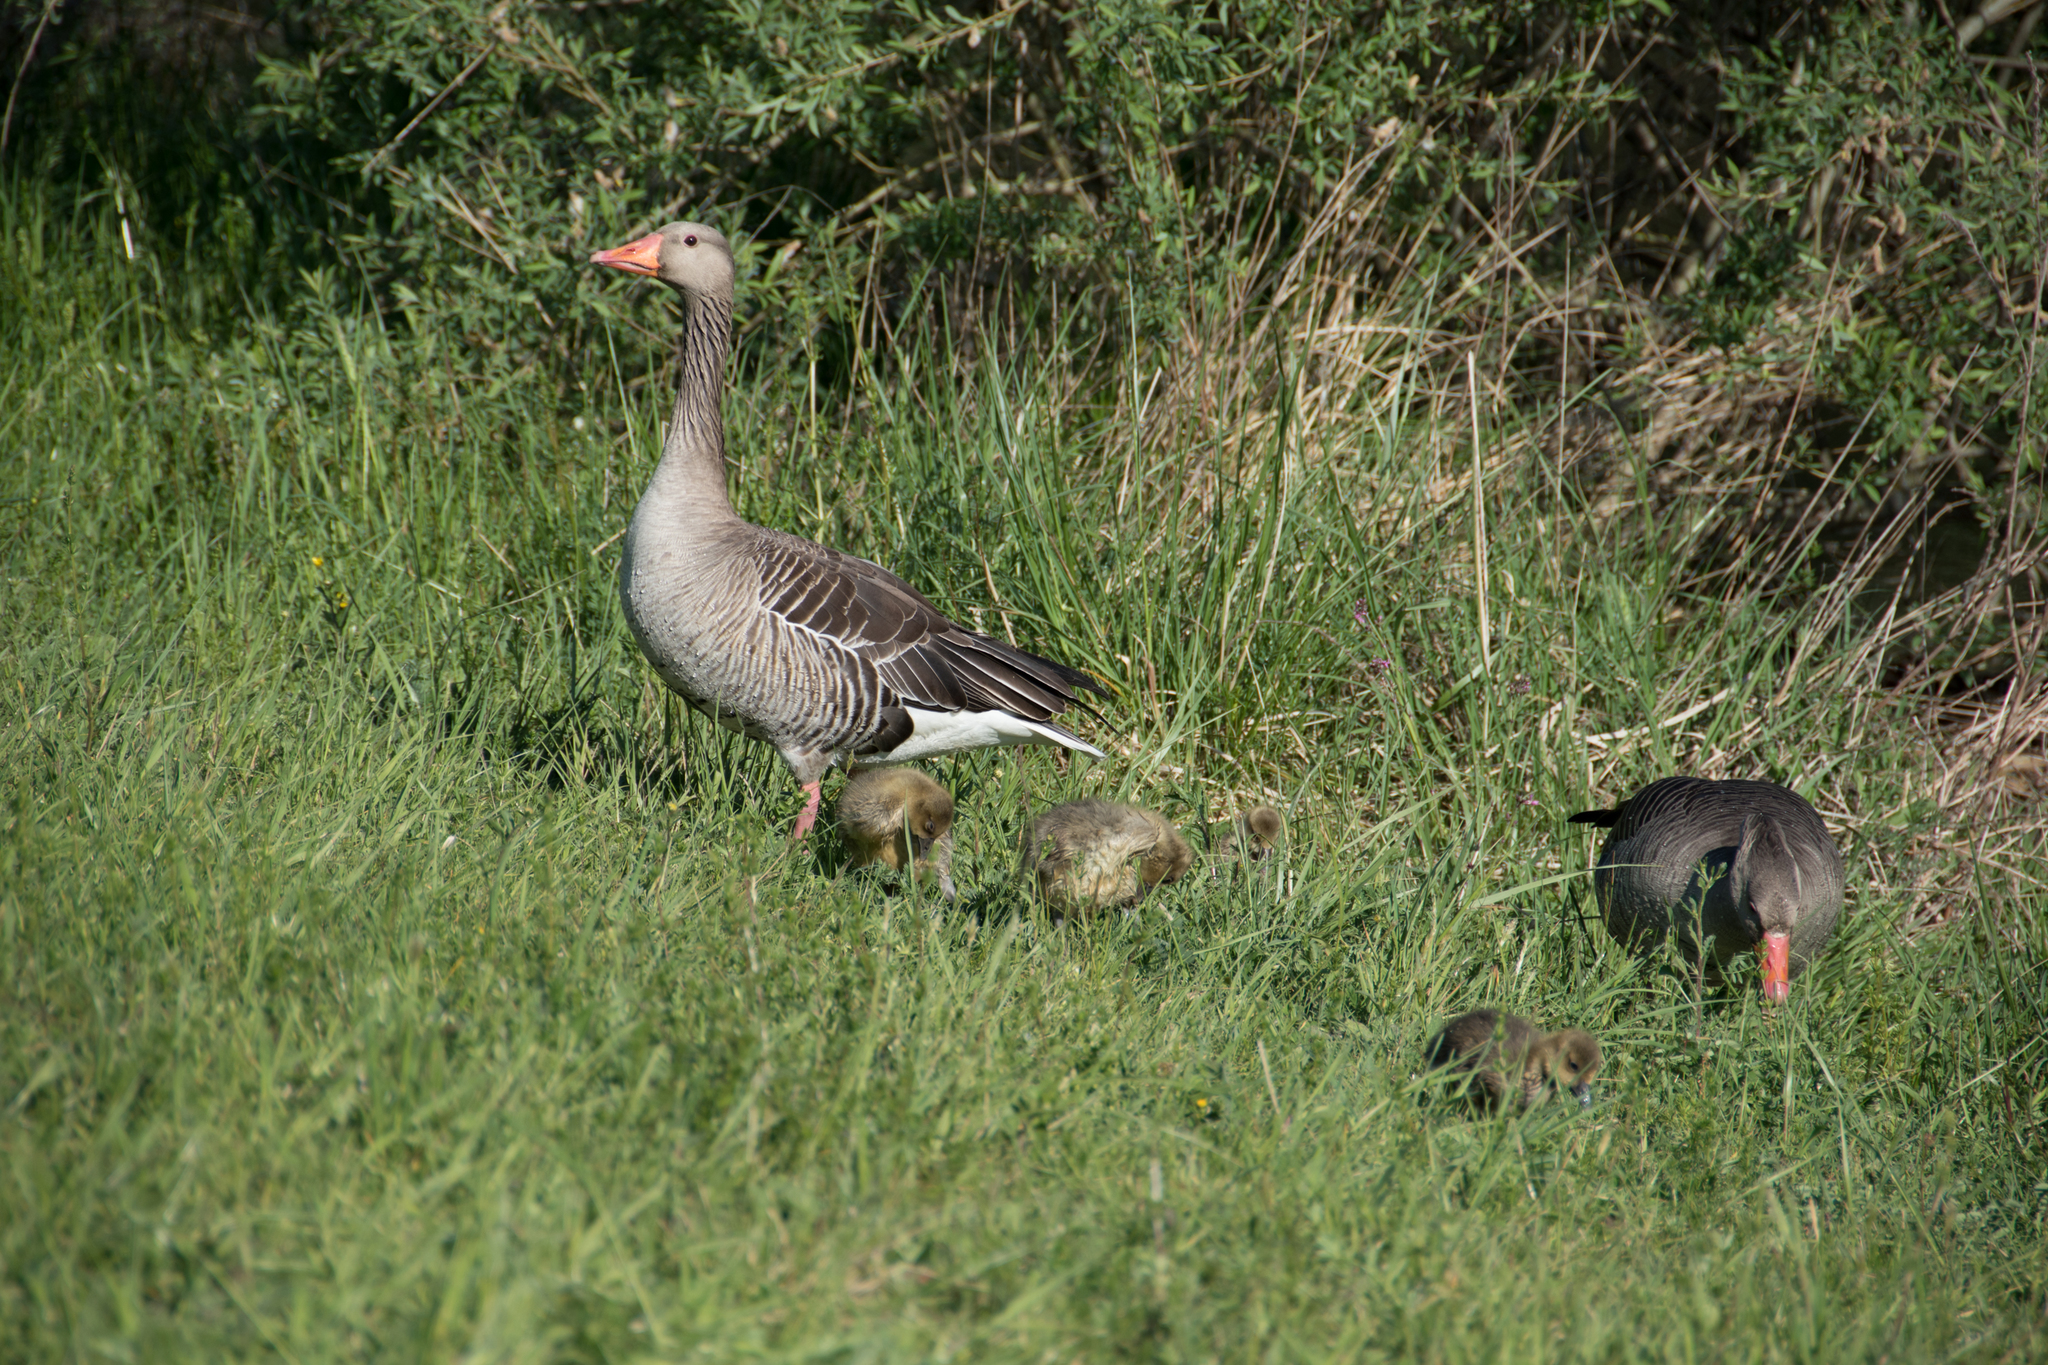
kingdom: Animalia
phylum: Chordata
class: Aves
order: Anseriformes
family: Anatidae
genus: Anser
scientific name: Anser anser
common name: Greylag goose
